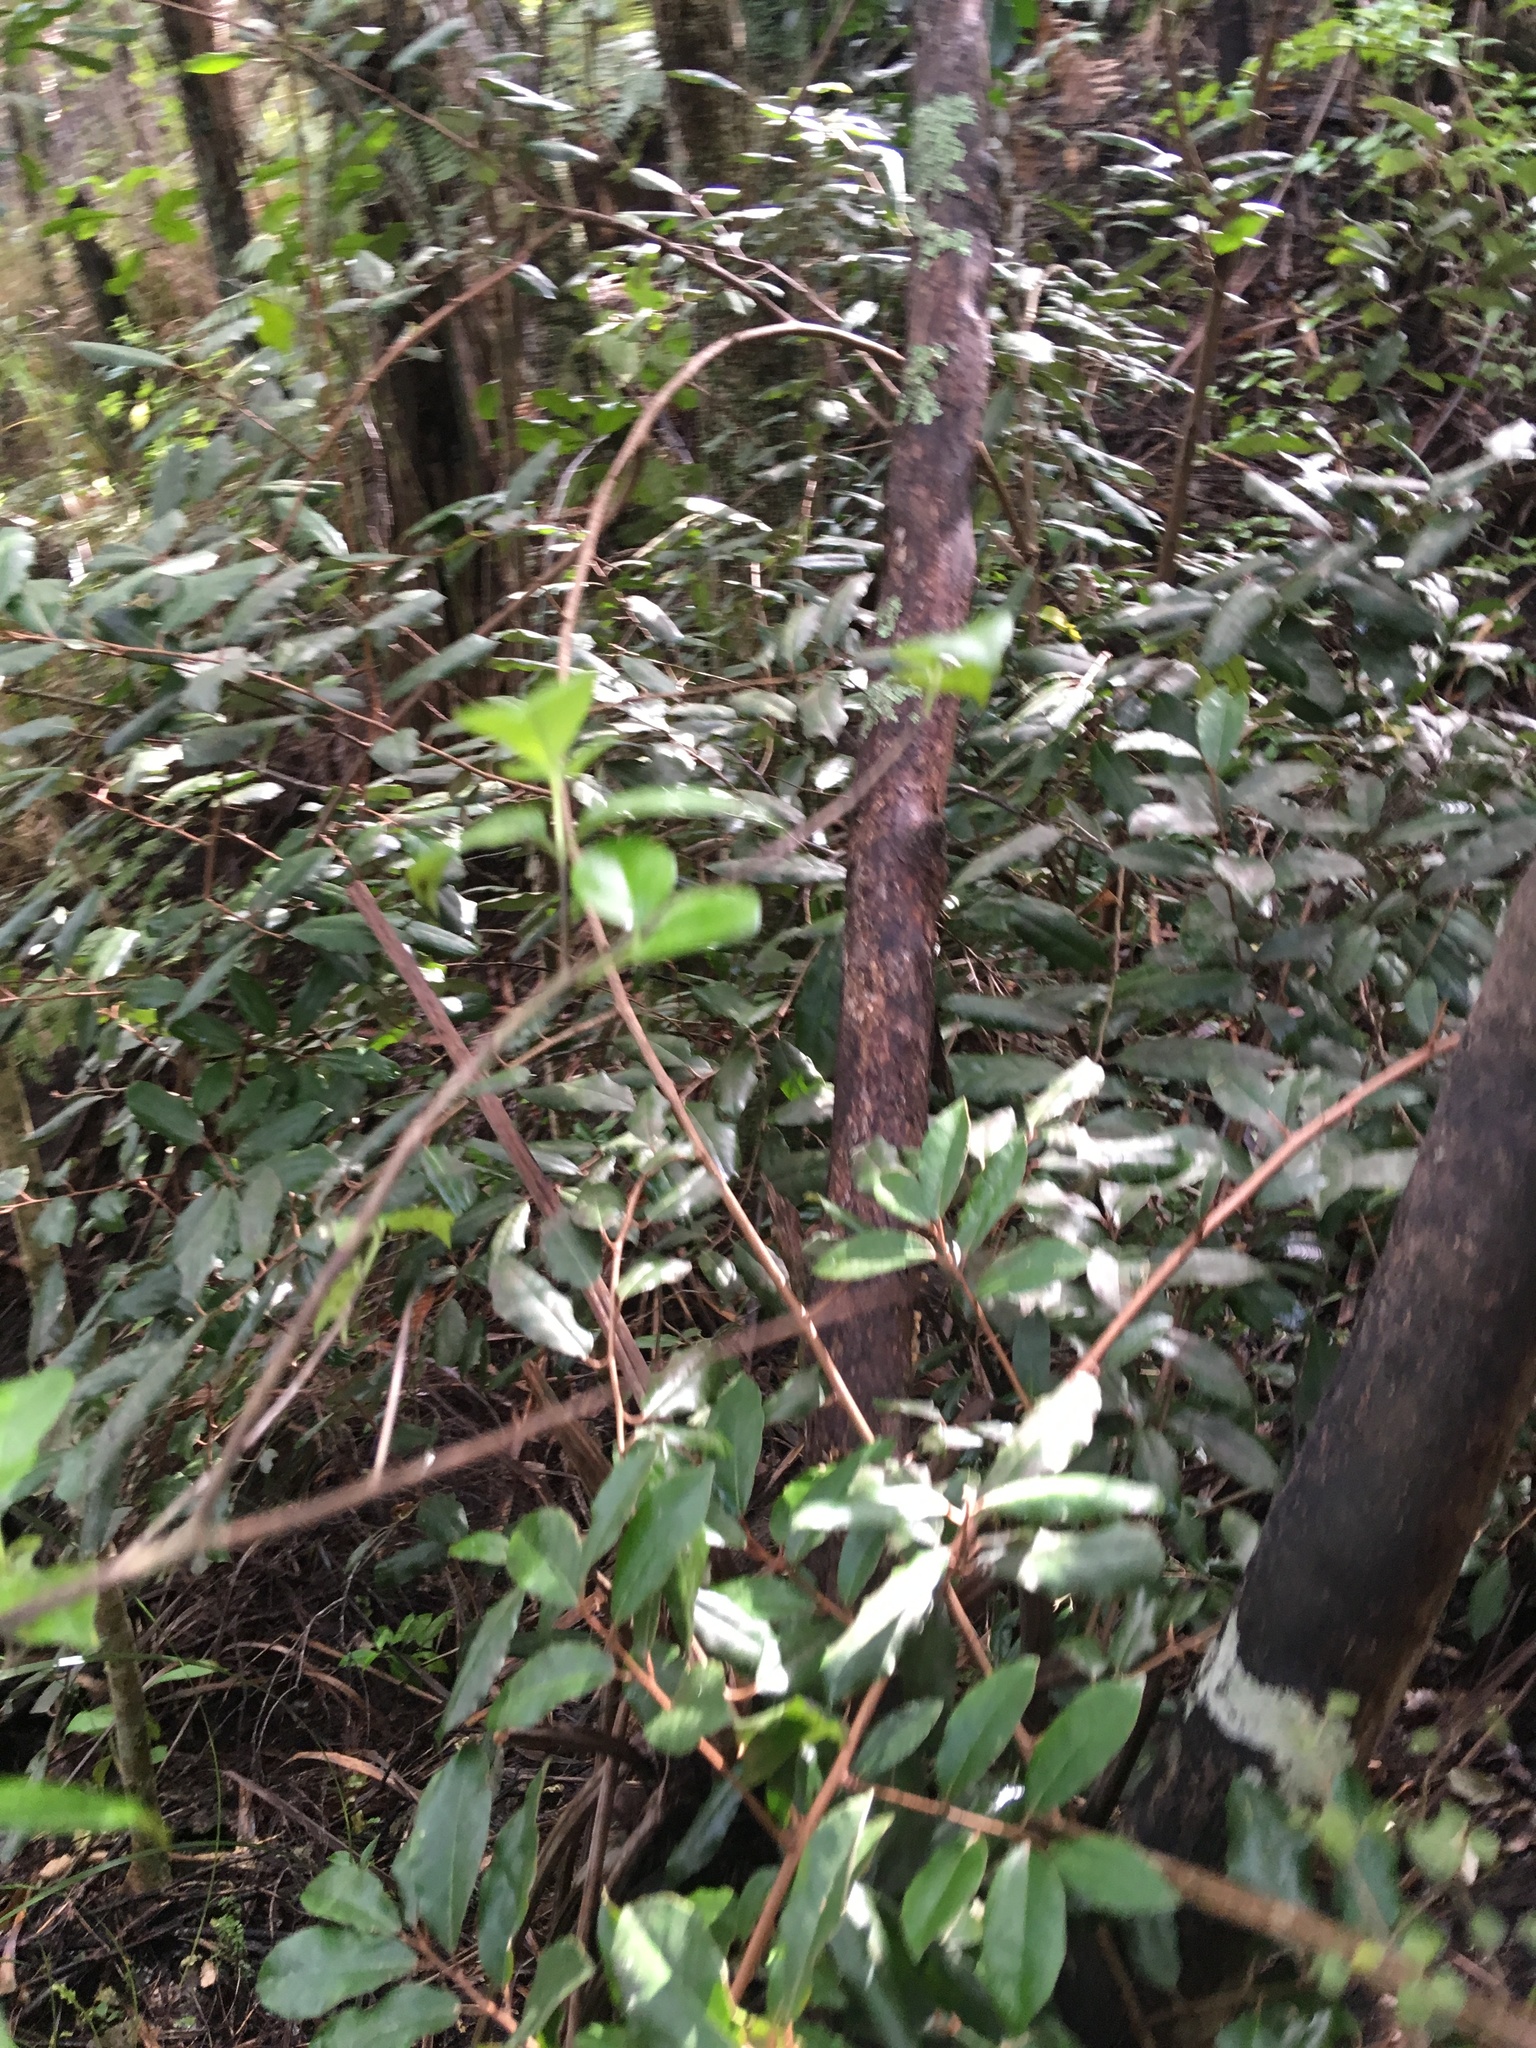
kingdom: Plantae
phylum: Tracheophyta
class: Magnoliopsida
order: Rosales
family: Elaeagnaceae
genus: Elaeagnus
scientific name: Elaeagnus reflexa
